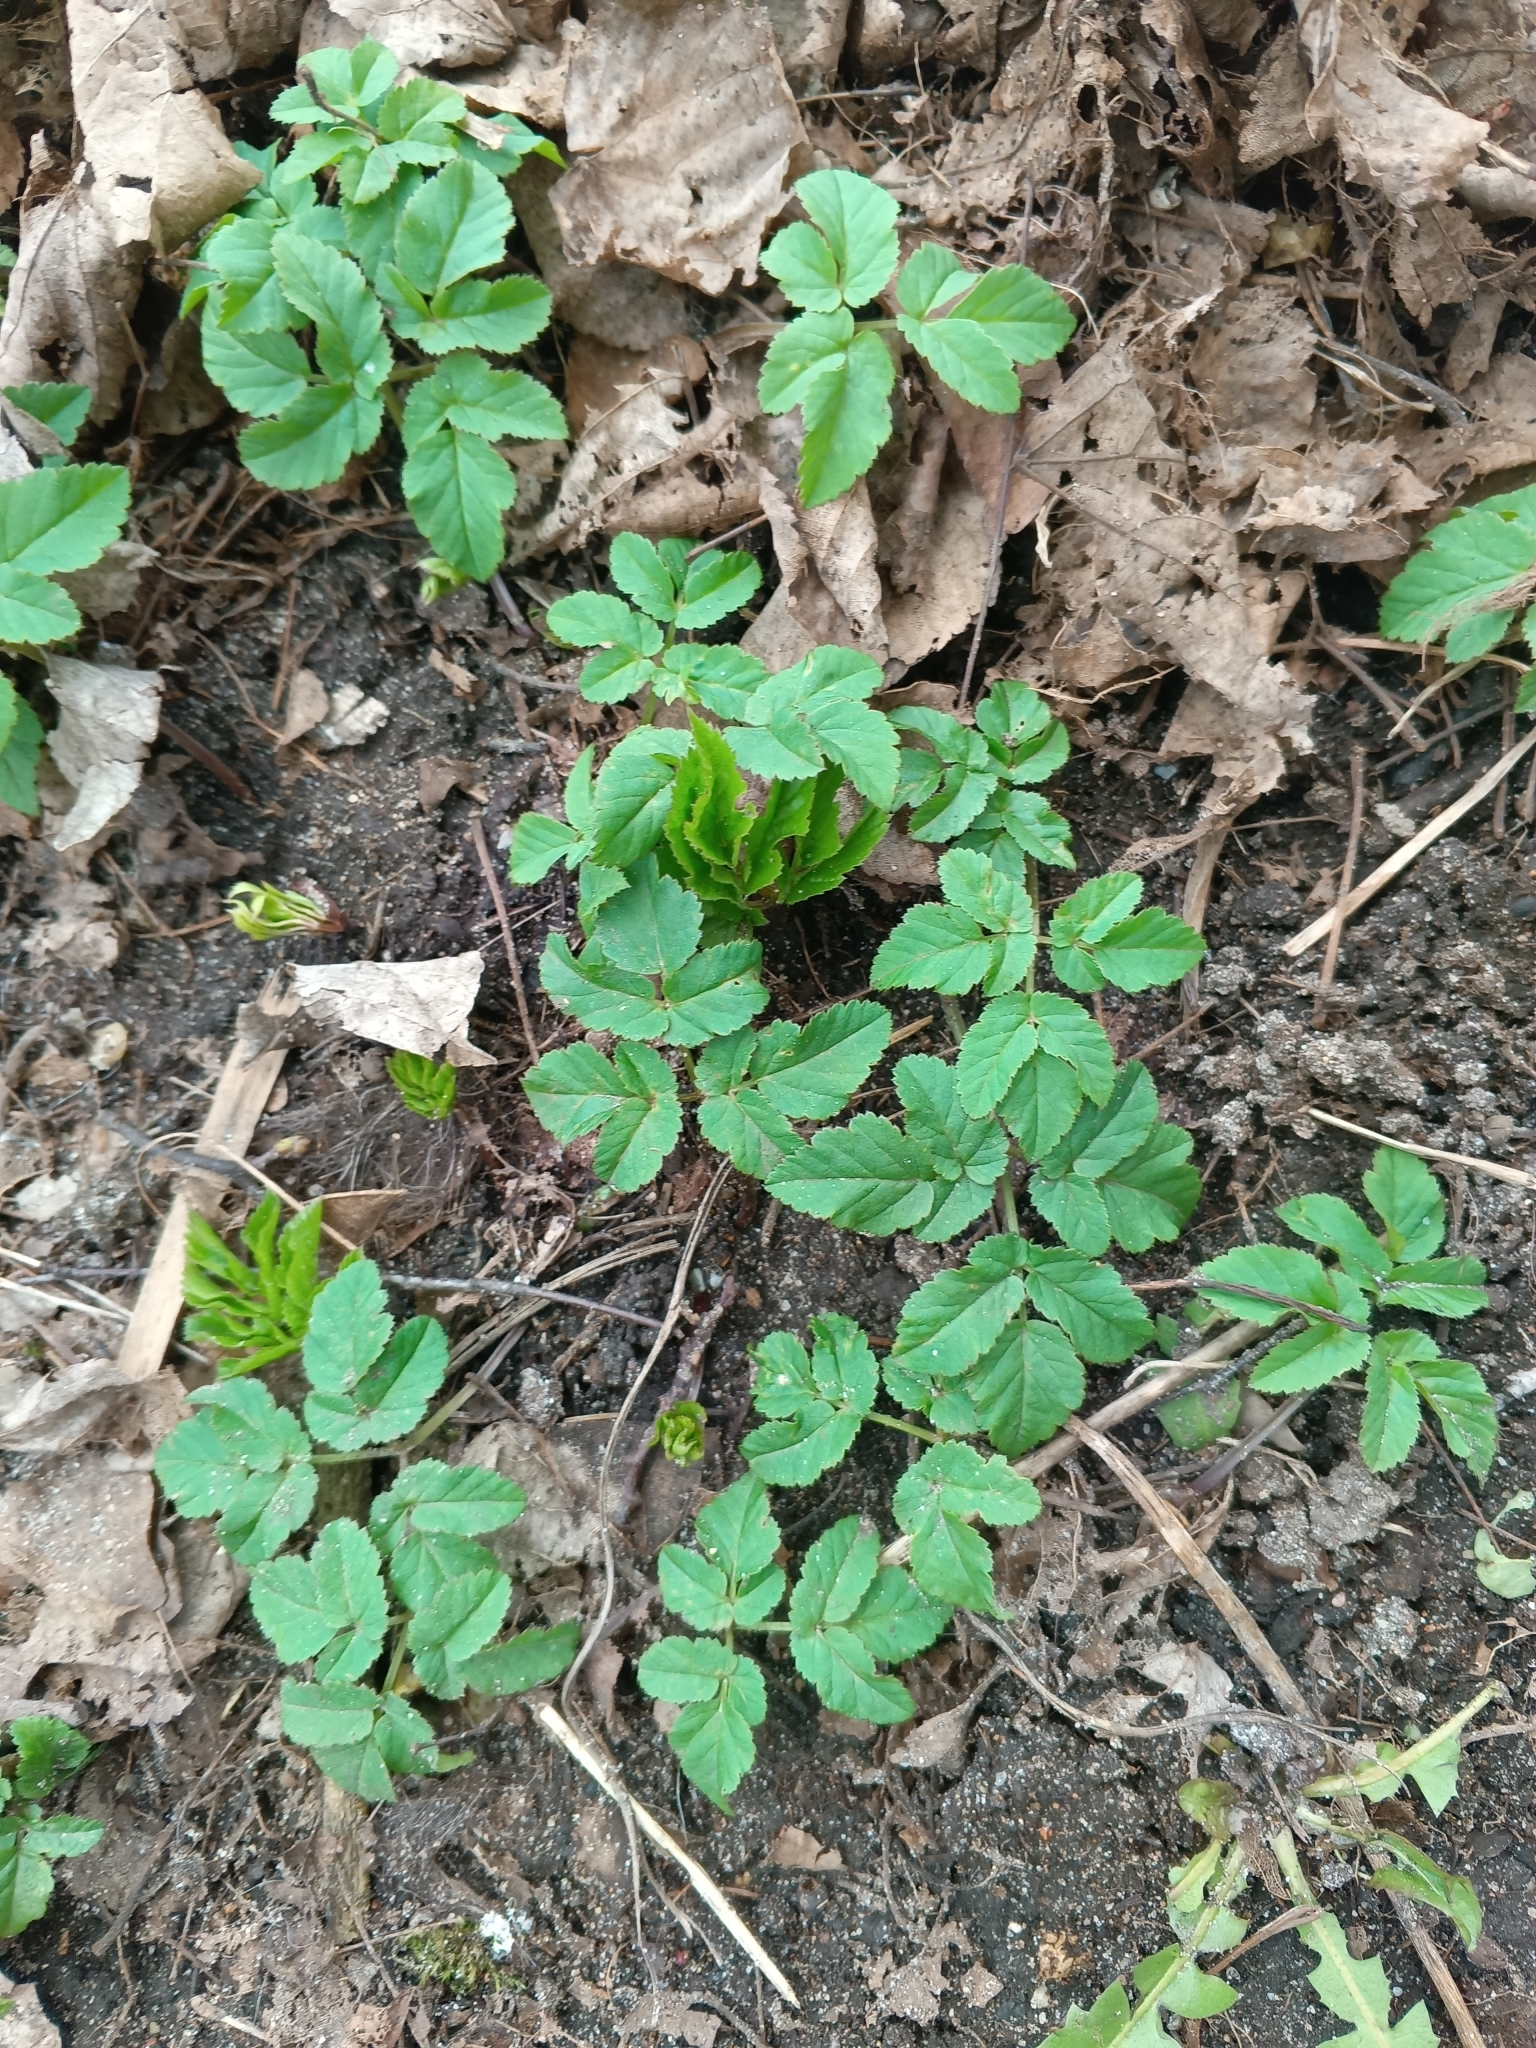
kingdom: Plantae
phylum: Tracheophyta
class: Magnoliopsida
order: Apiales
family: Apiaceae
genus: Aegopodium
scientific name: Aegopodium podagraria
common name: Ground-elder
